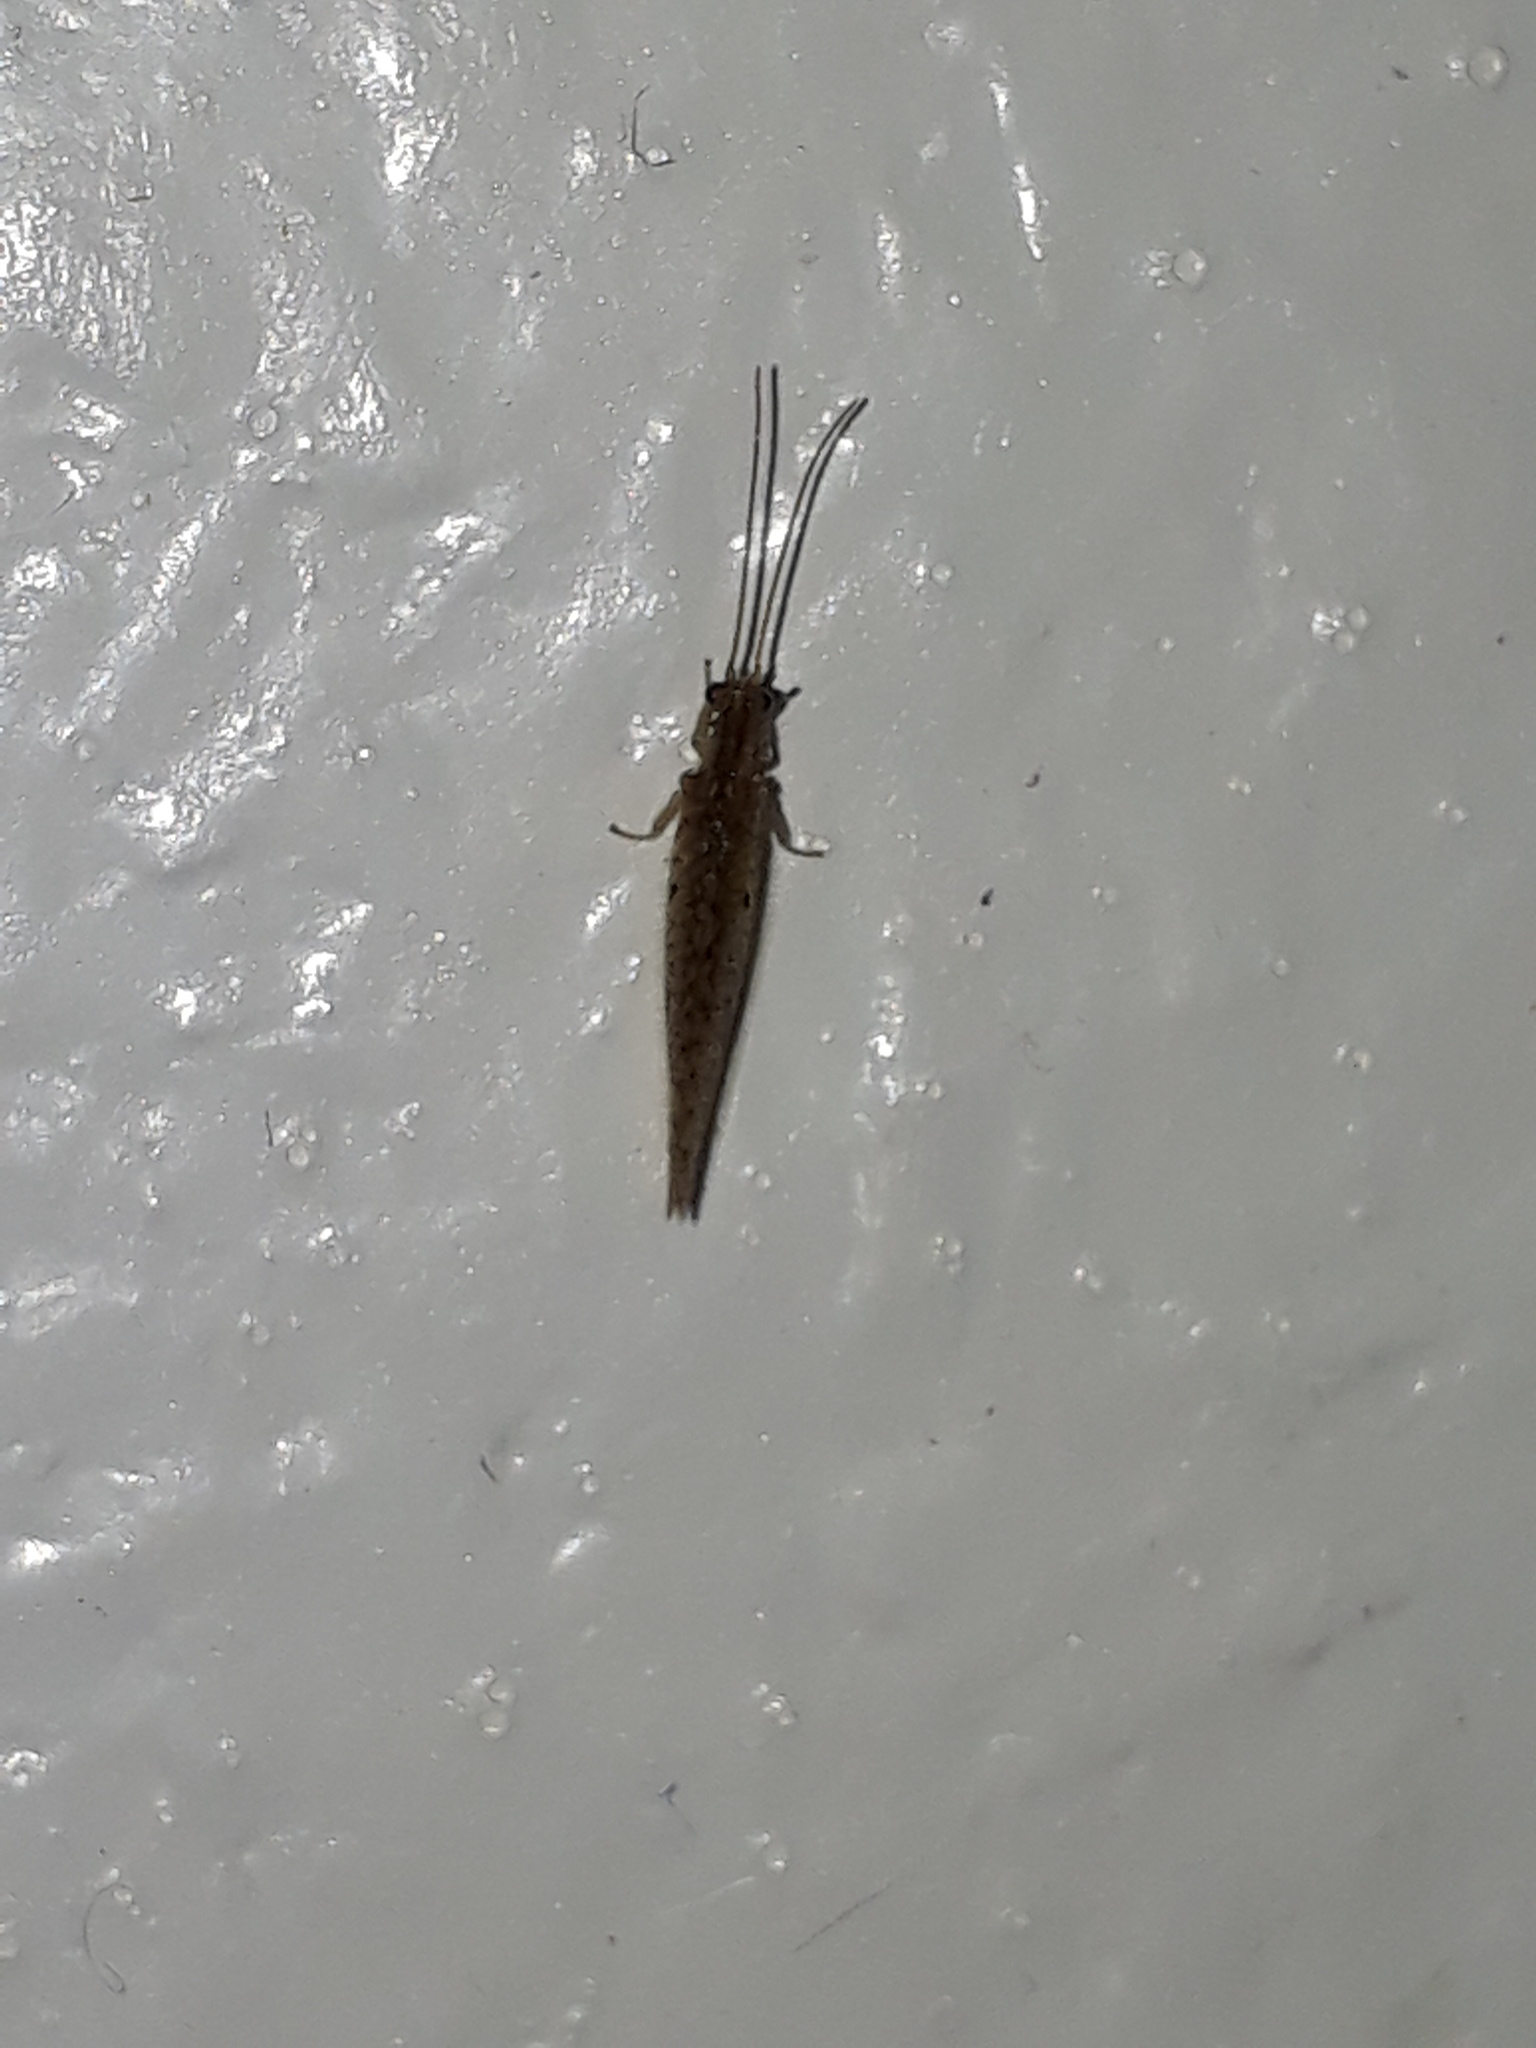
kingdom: Animalia
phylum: Arthropoda
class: Insecta
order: Neuroptera
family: Hemerobiidae
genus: Micromus
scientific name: Micromus tasmaniae
